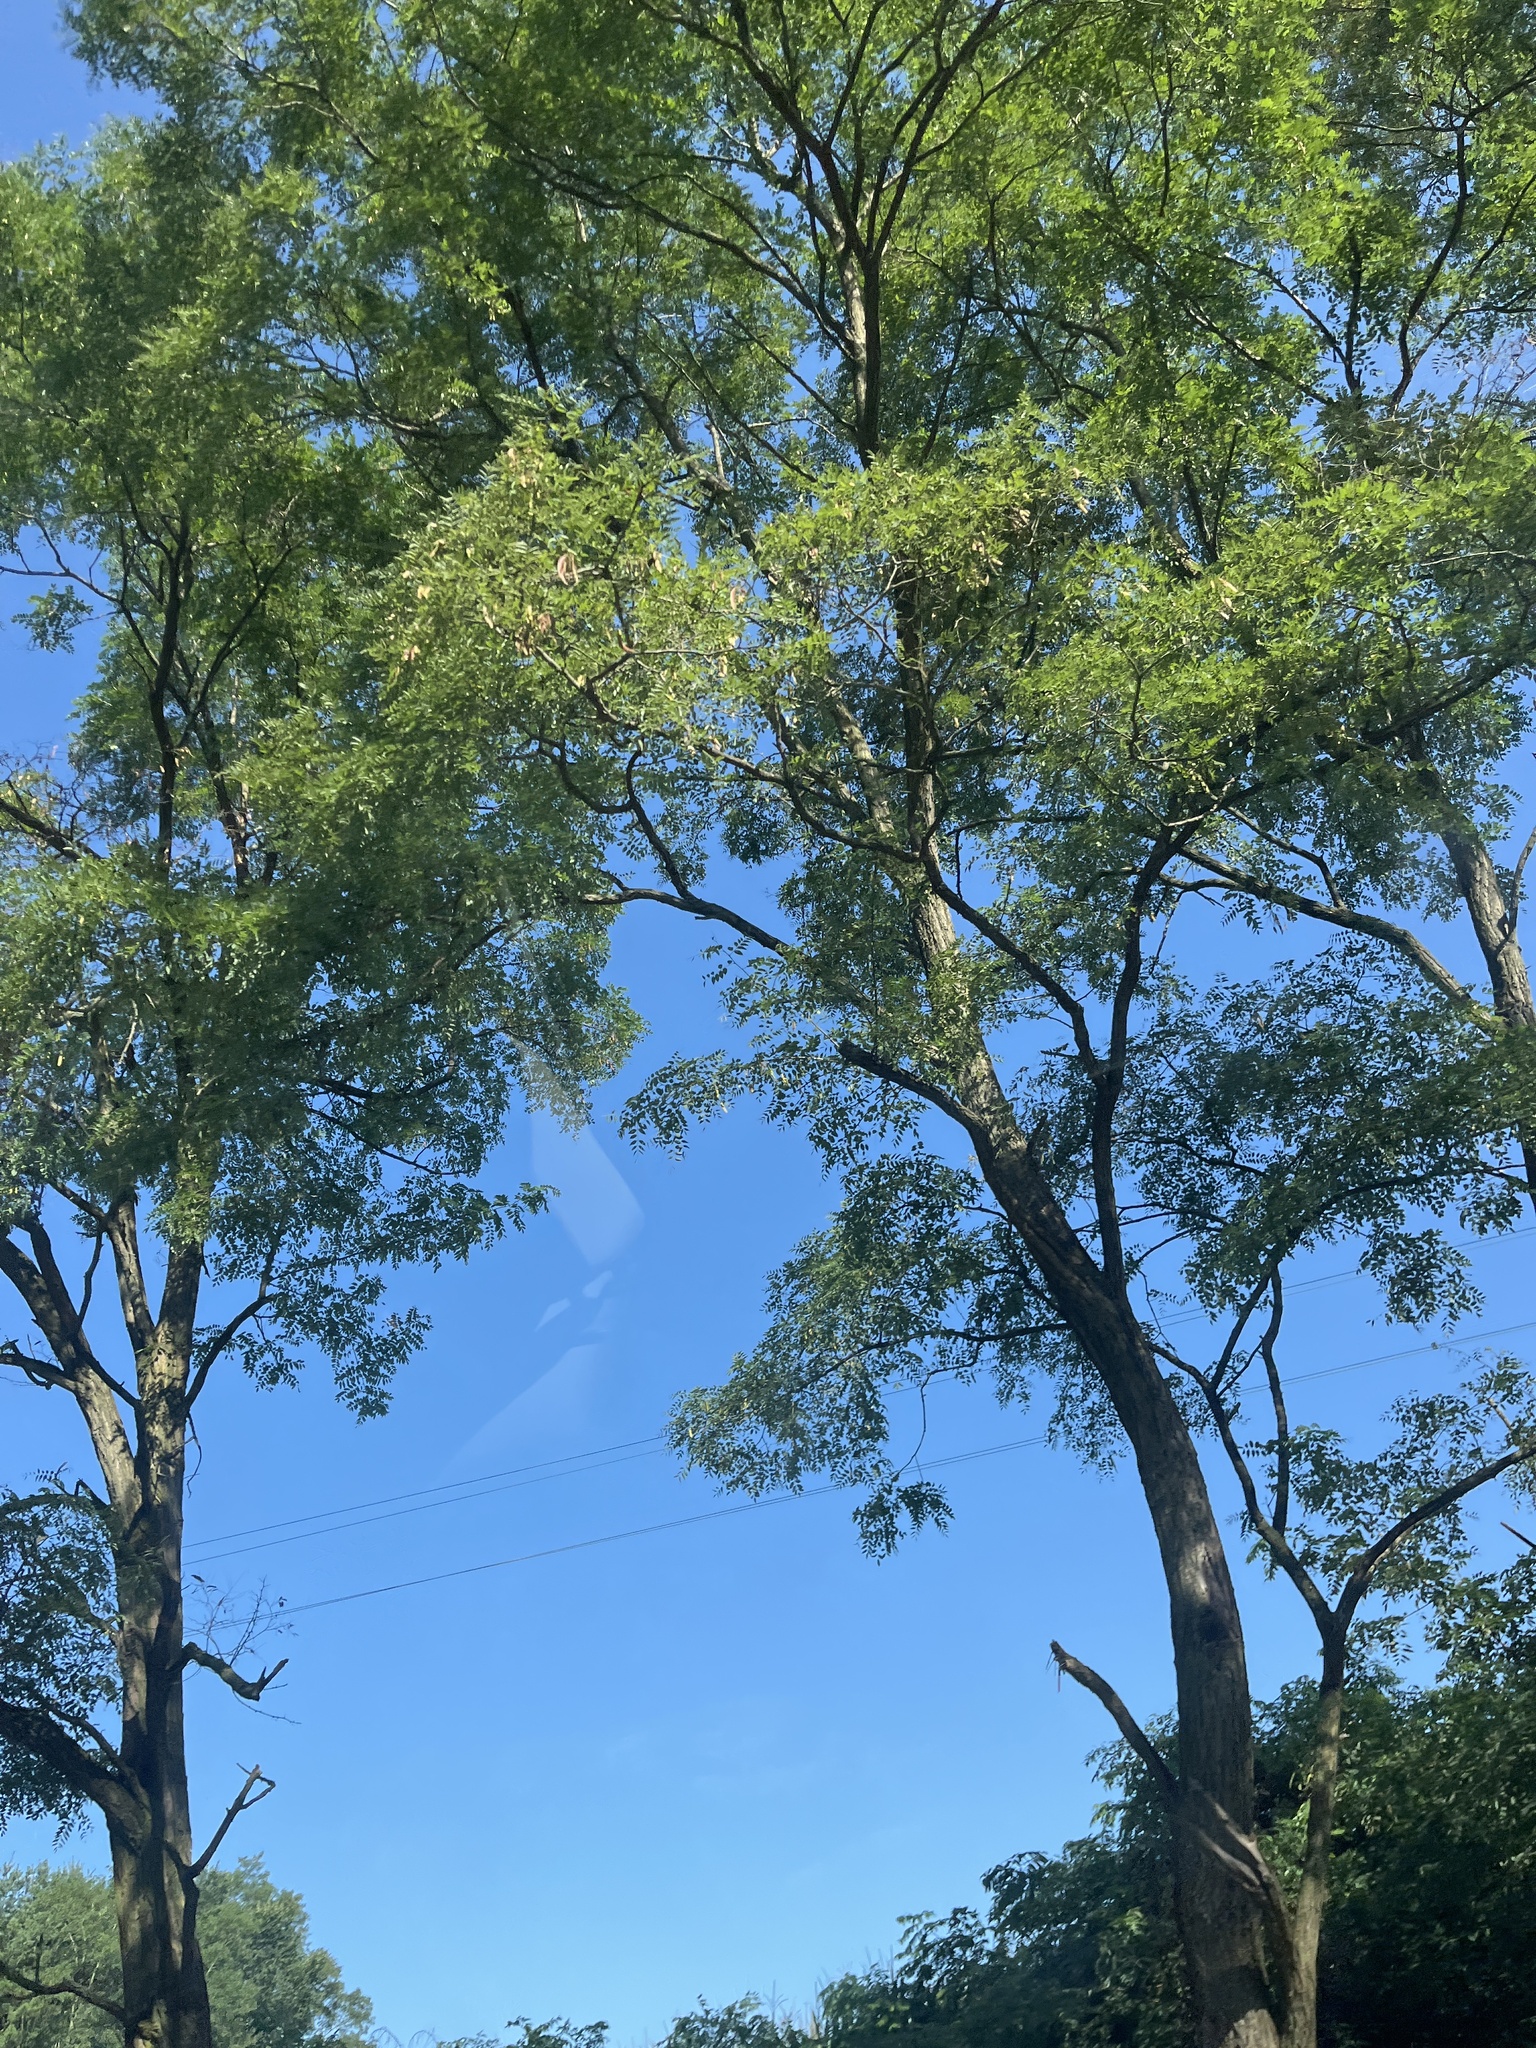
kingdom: Plantae
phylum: Tracheophyta
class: Magnoliopsida
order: Fabales
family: Fabaceae
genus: Robinia
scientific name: Robinia pseudoacacia
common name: Black locust
